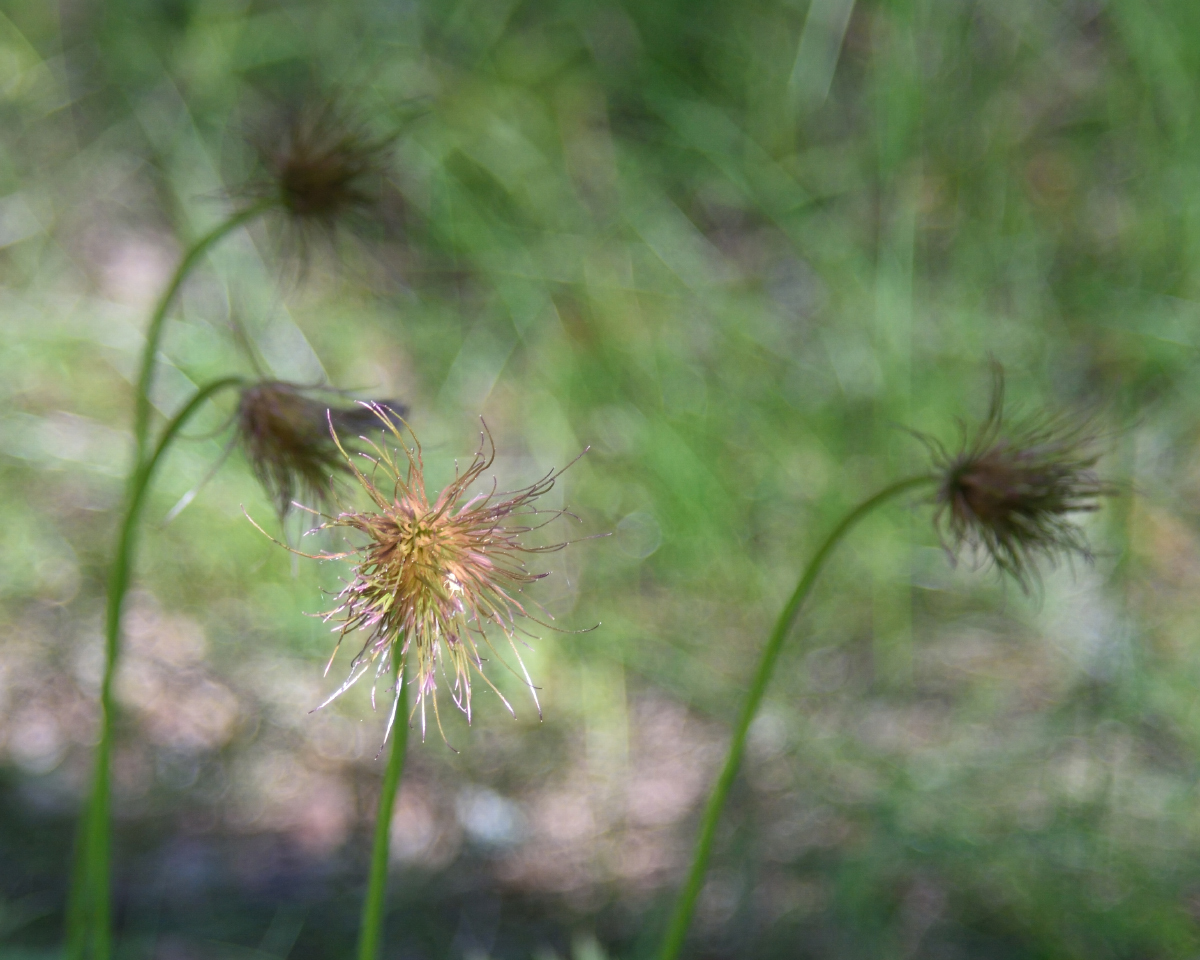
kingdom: Plantae
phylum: Tracheophyta
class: Magnoliopsida
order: Ranunculales
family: Ranunculaceae
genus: Pulsatilla
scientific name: Pulsatilla patens
